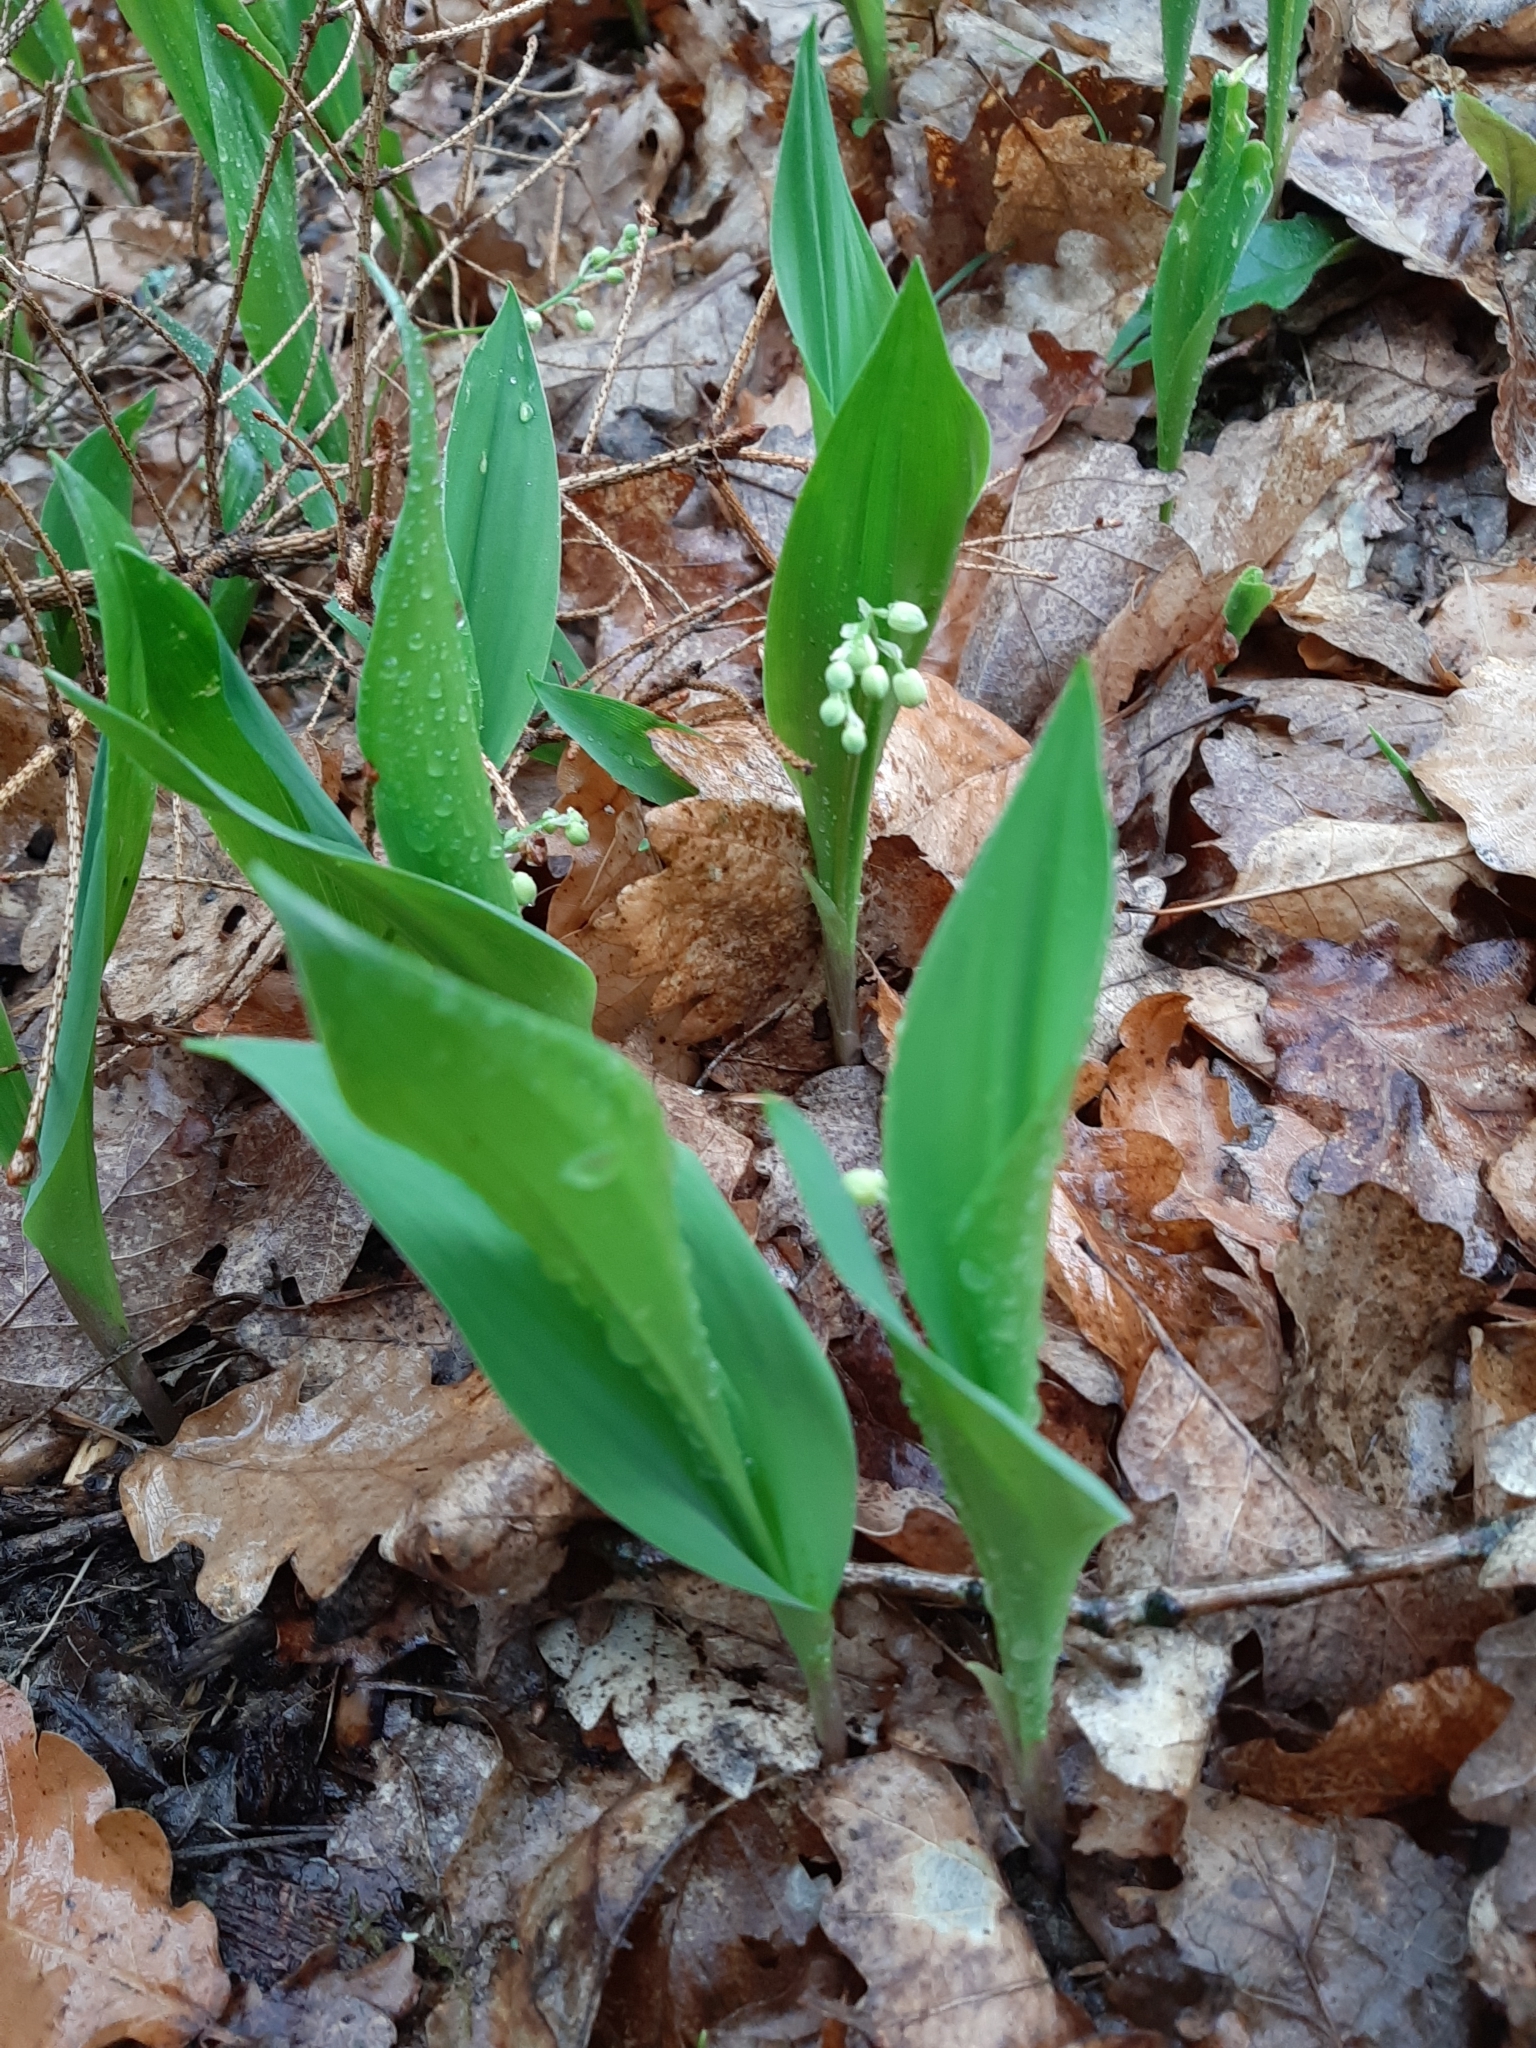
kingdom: Plantae
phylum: Tracheophyta
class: Liliopsida
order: Asparagales
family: Asparagaceae
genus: Convallaria
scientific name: Convallaria majalis
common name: Lily-of-the-valley
